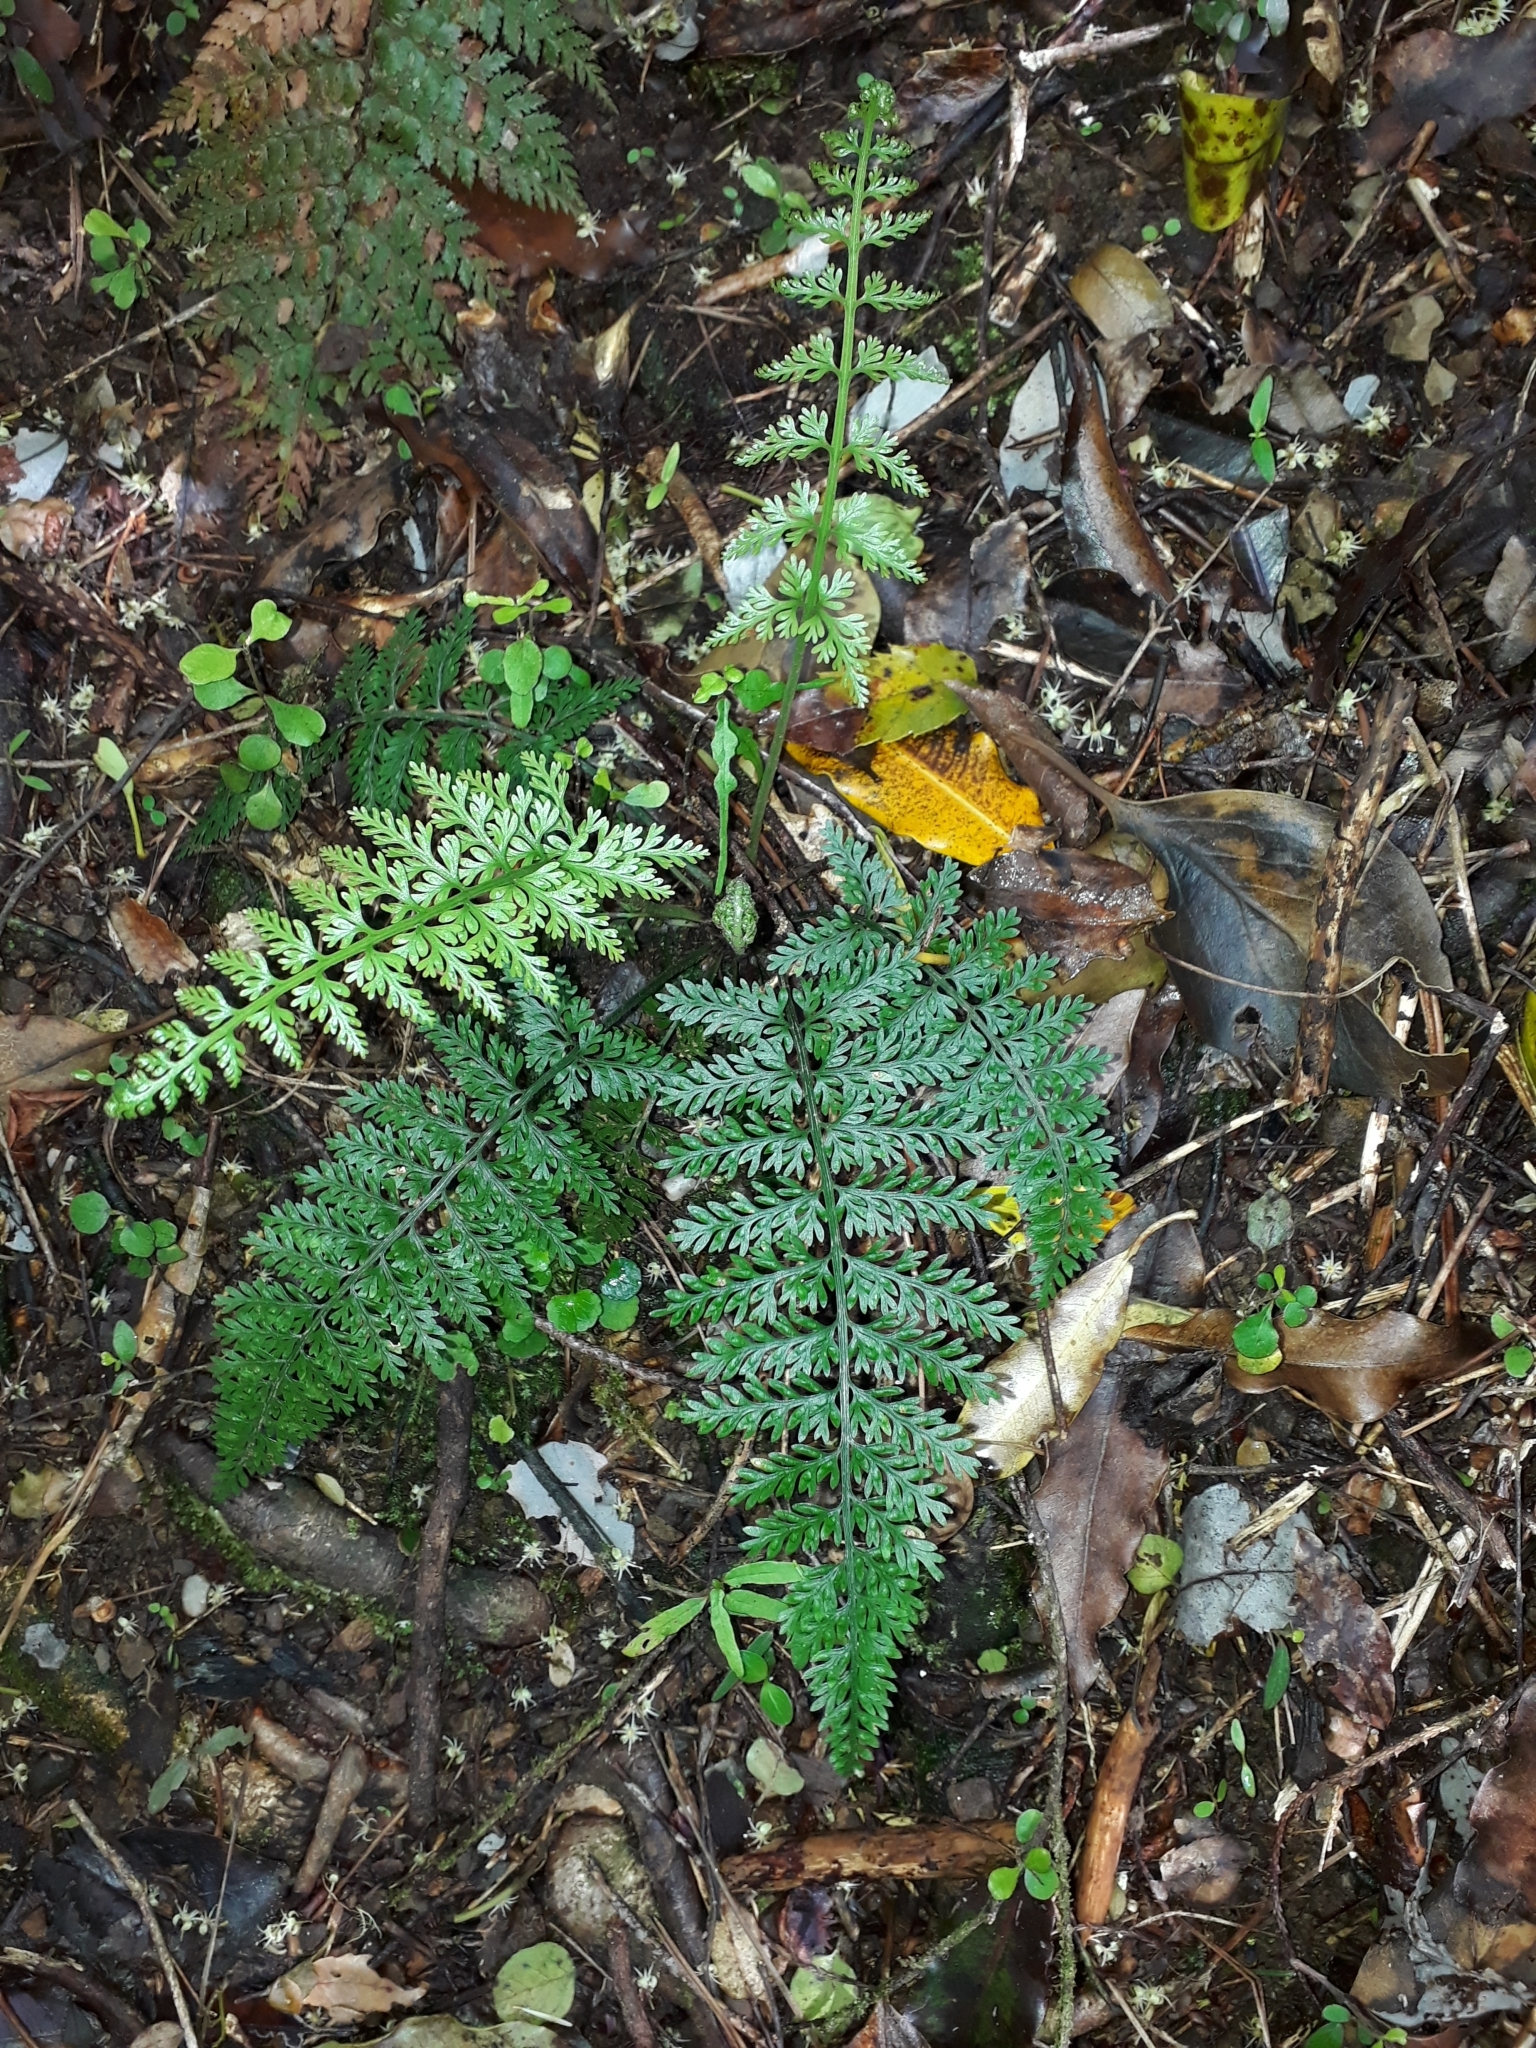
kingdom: Plantae
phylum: Tracheophyta
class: Polypodiopsida
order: Polypodiales
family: Aspleniaceae
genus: Asplenium
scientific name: Asplenium
